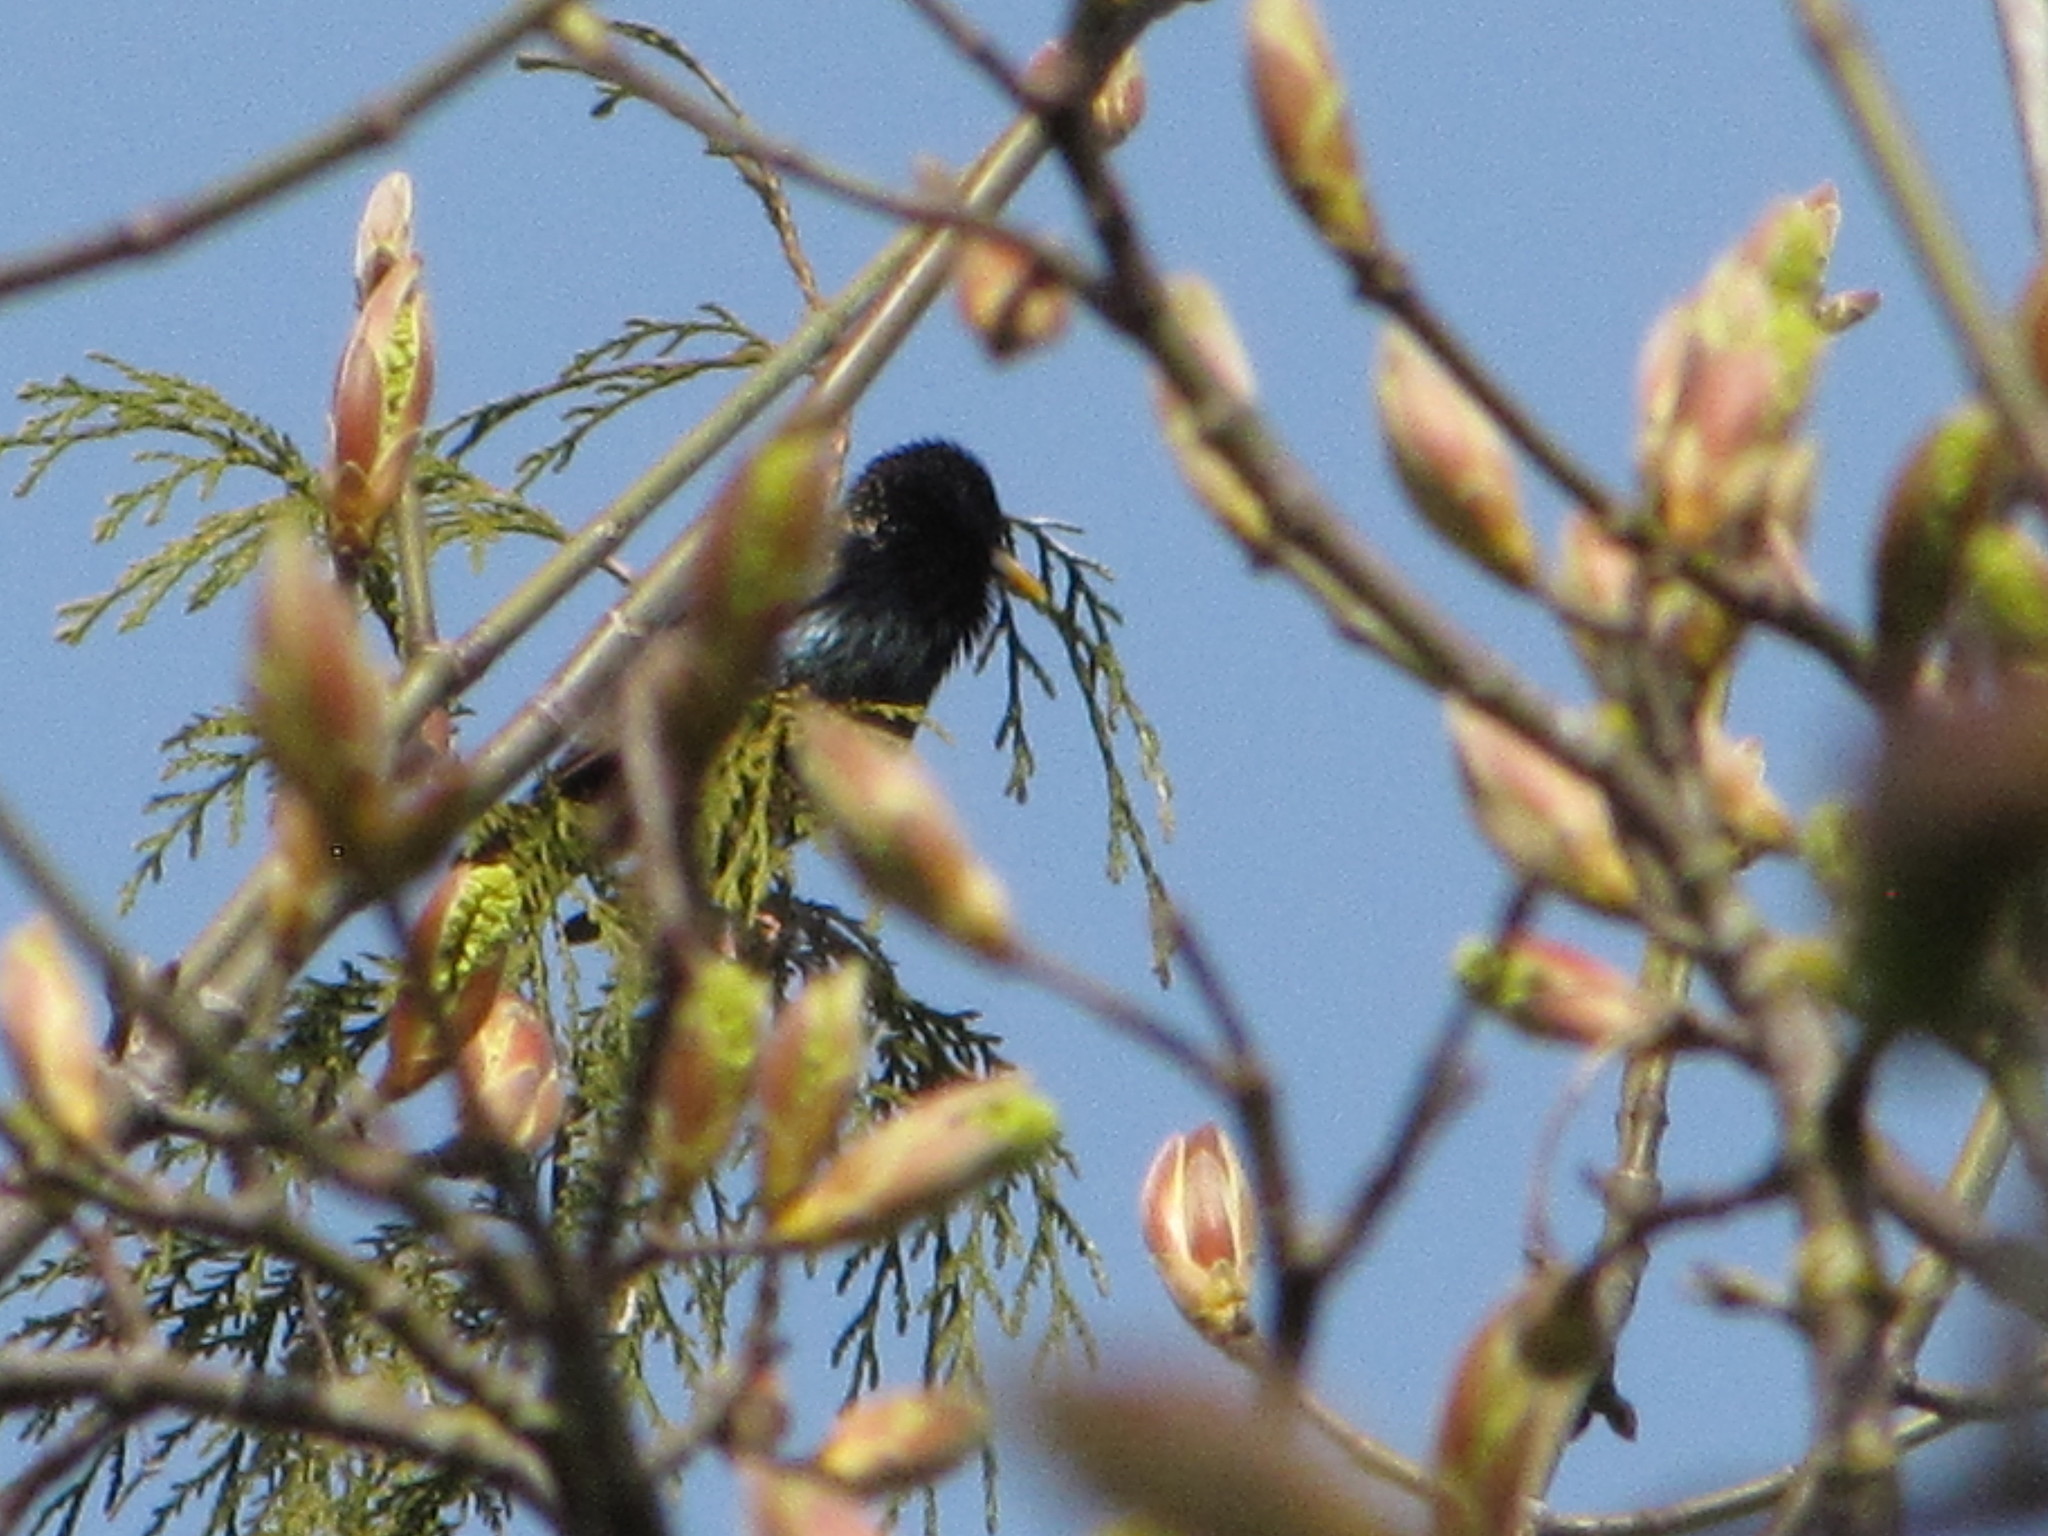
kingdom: Animalia
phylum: Chordata
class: Aves
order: Passeriformes
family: Sturnidae
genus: Sturnus
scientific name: Sturnus vulgaris
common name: Common starling
